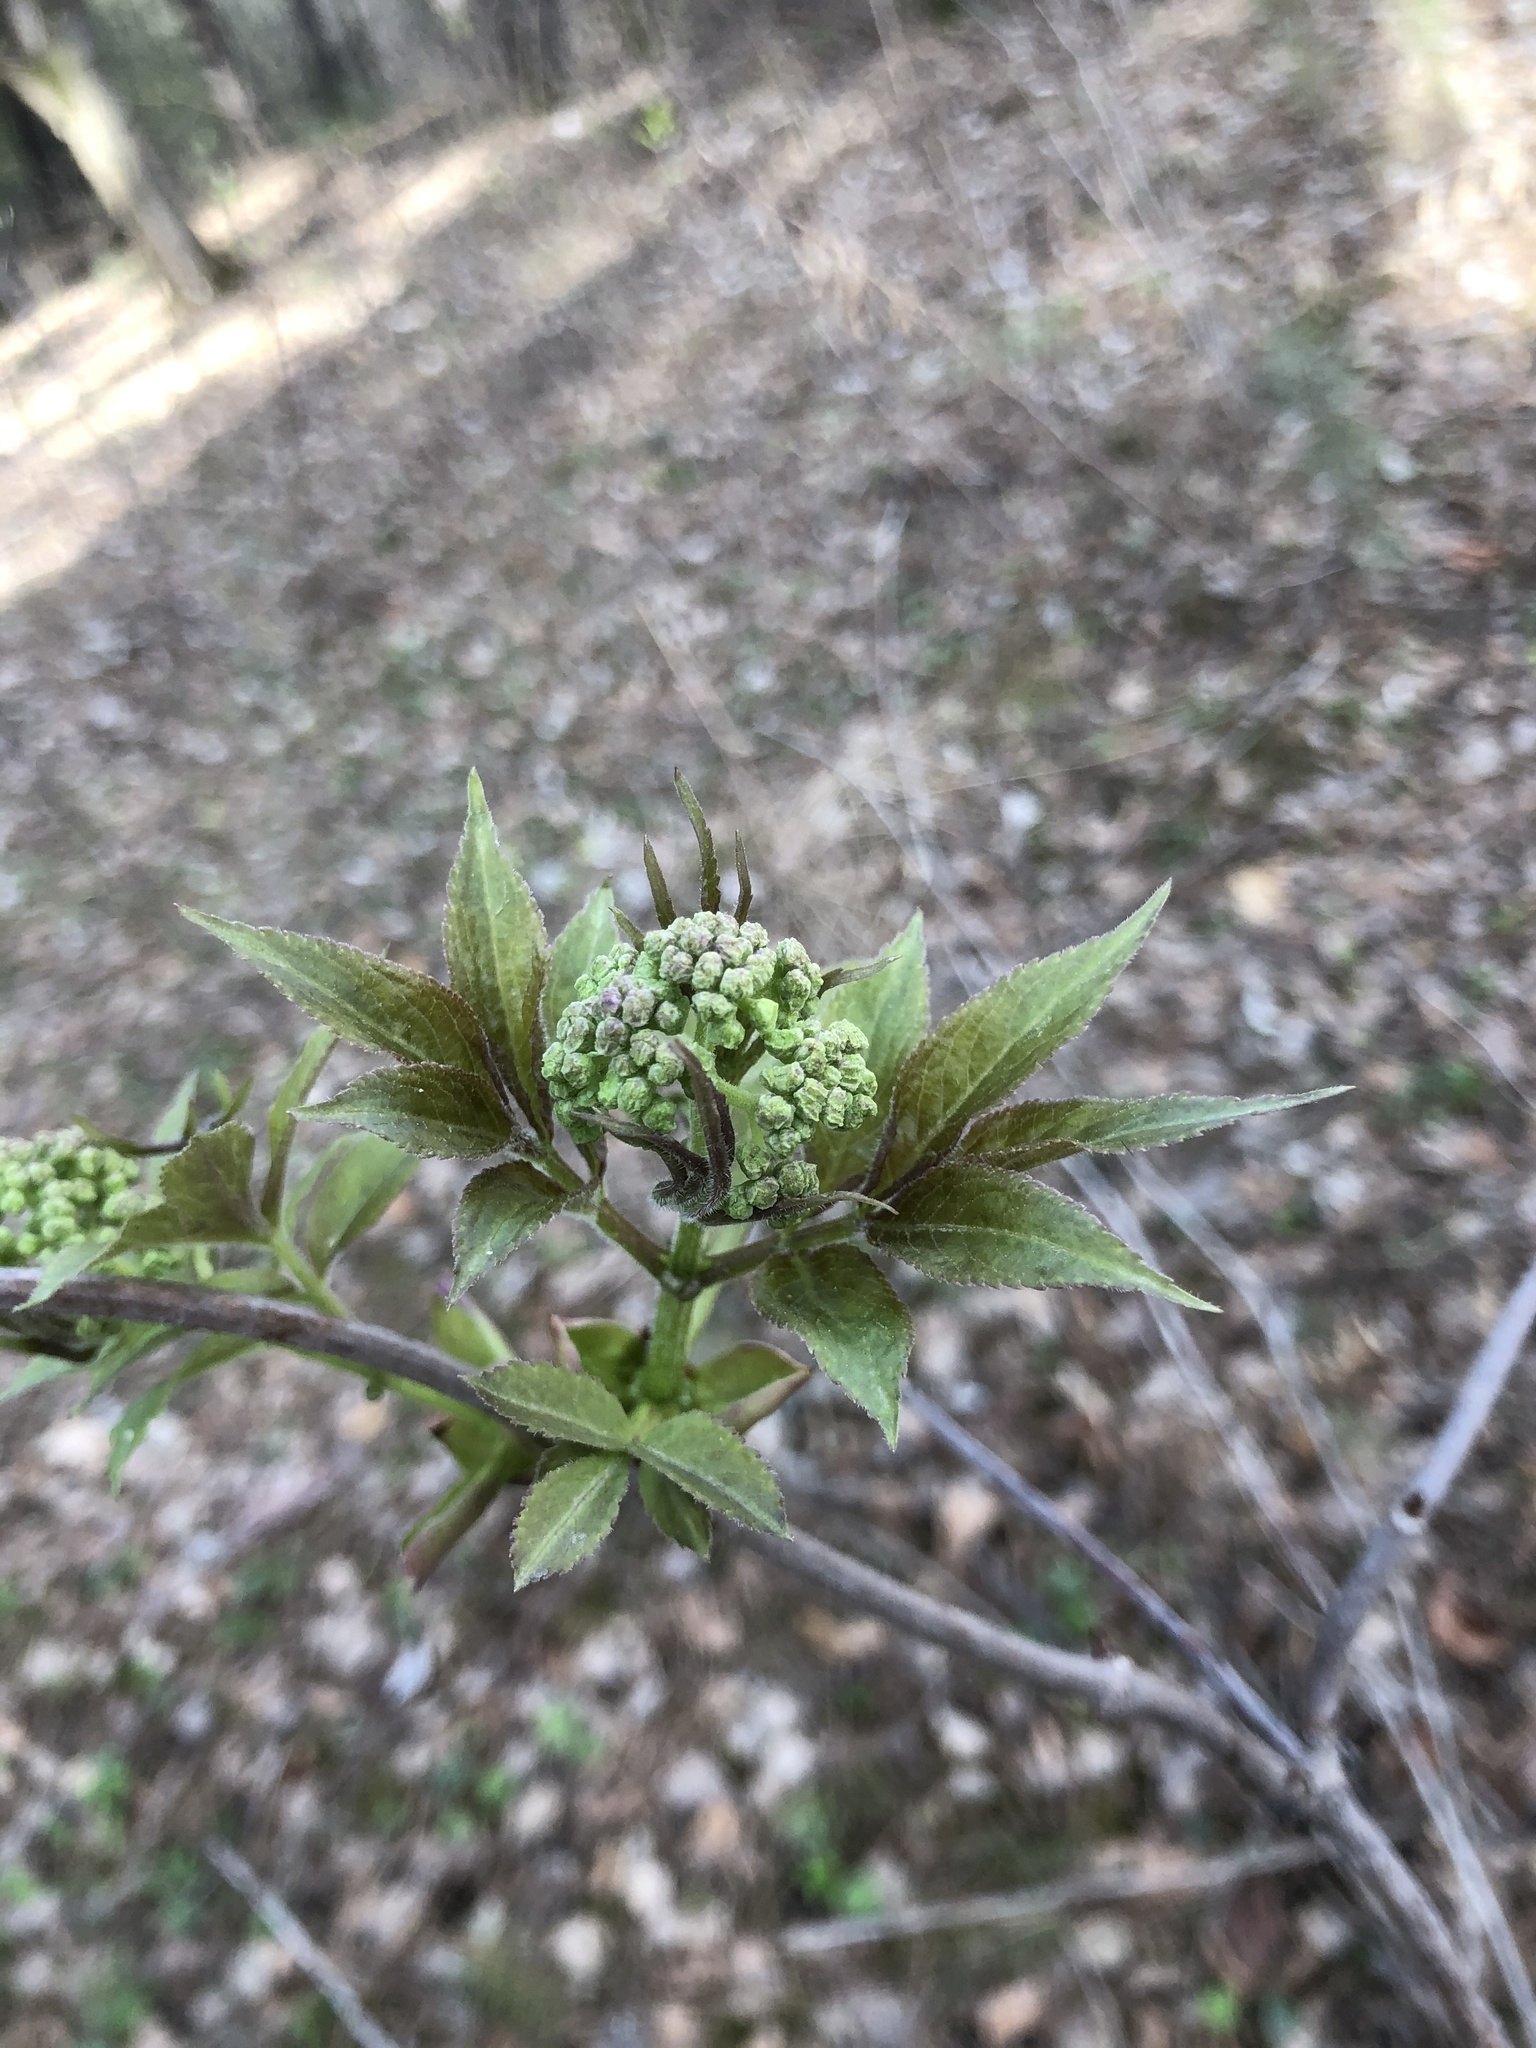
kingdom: Plantae
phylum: Tracheophyta
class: Magnoliopsida
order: Dipsacales
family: Viburnaceae
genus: Sambucus
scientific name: Sambucus sibirica
